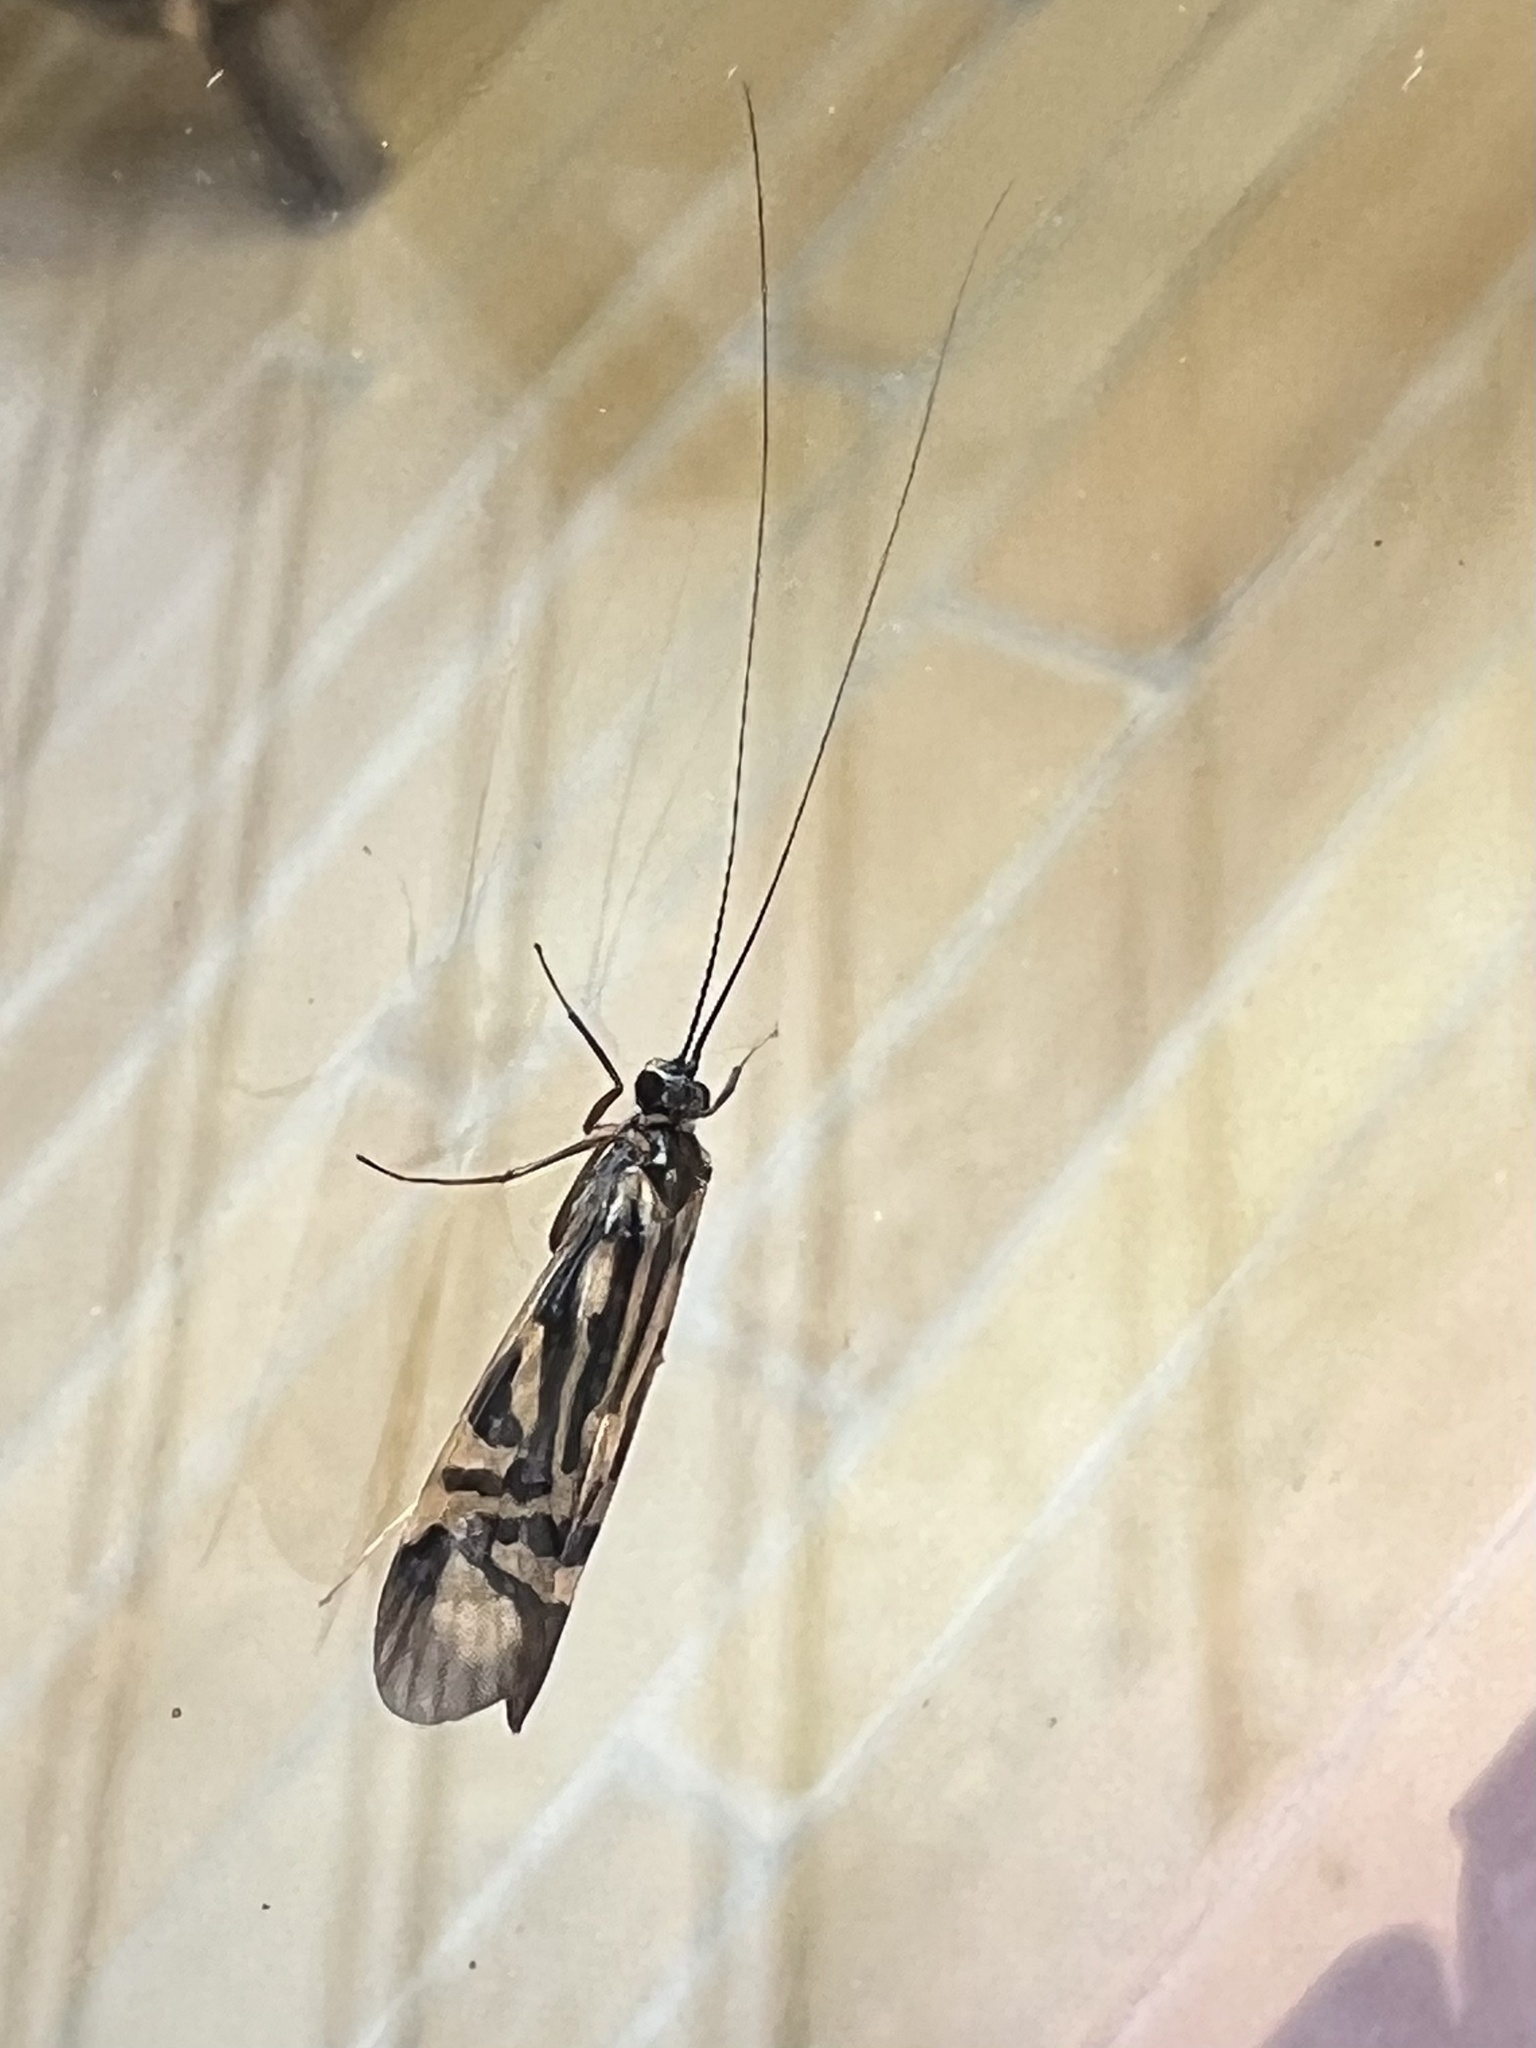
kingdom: Animalia
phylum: Arthropoda
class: Insecta
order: Trichoptera
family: Hydropsychidae
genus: Macrostemum
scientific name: Macrostemum zebratum
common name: Zebra caddisfly
